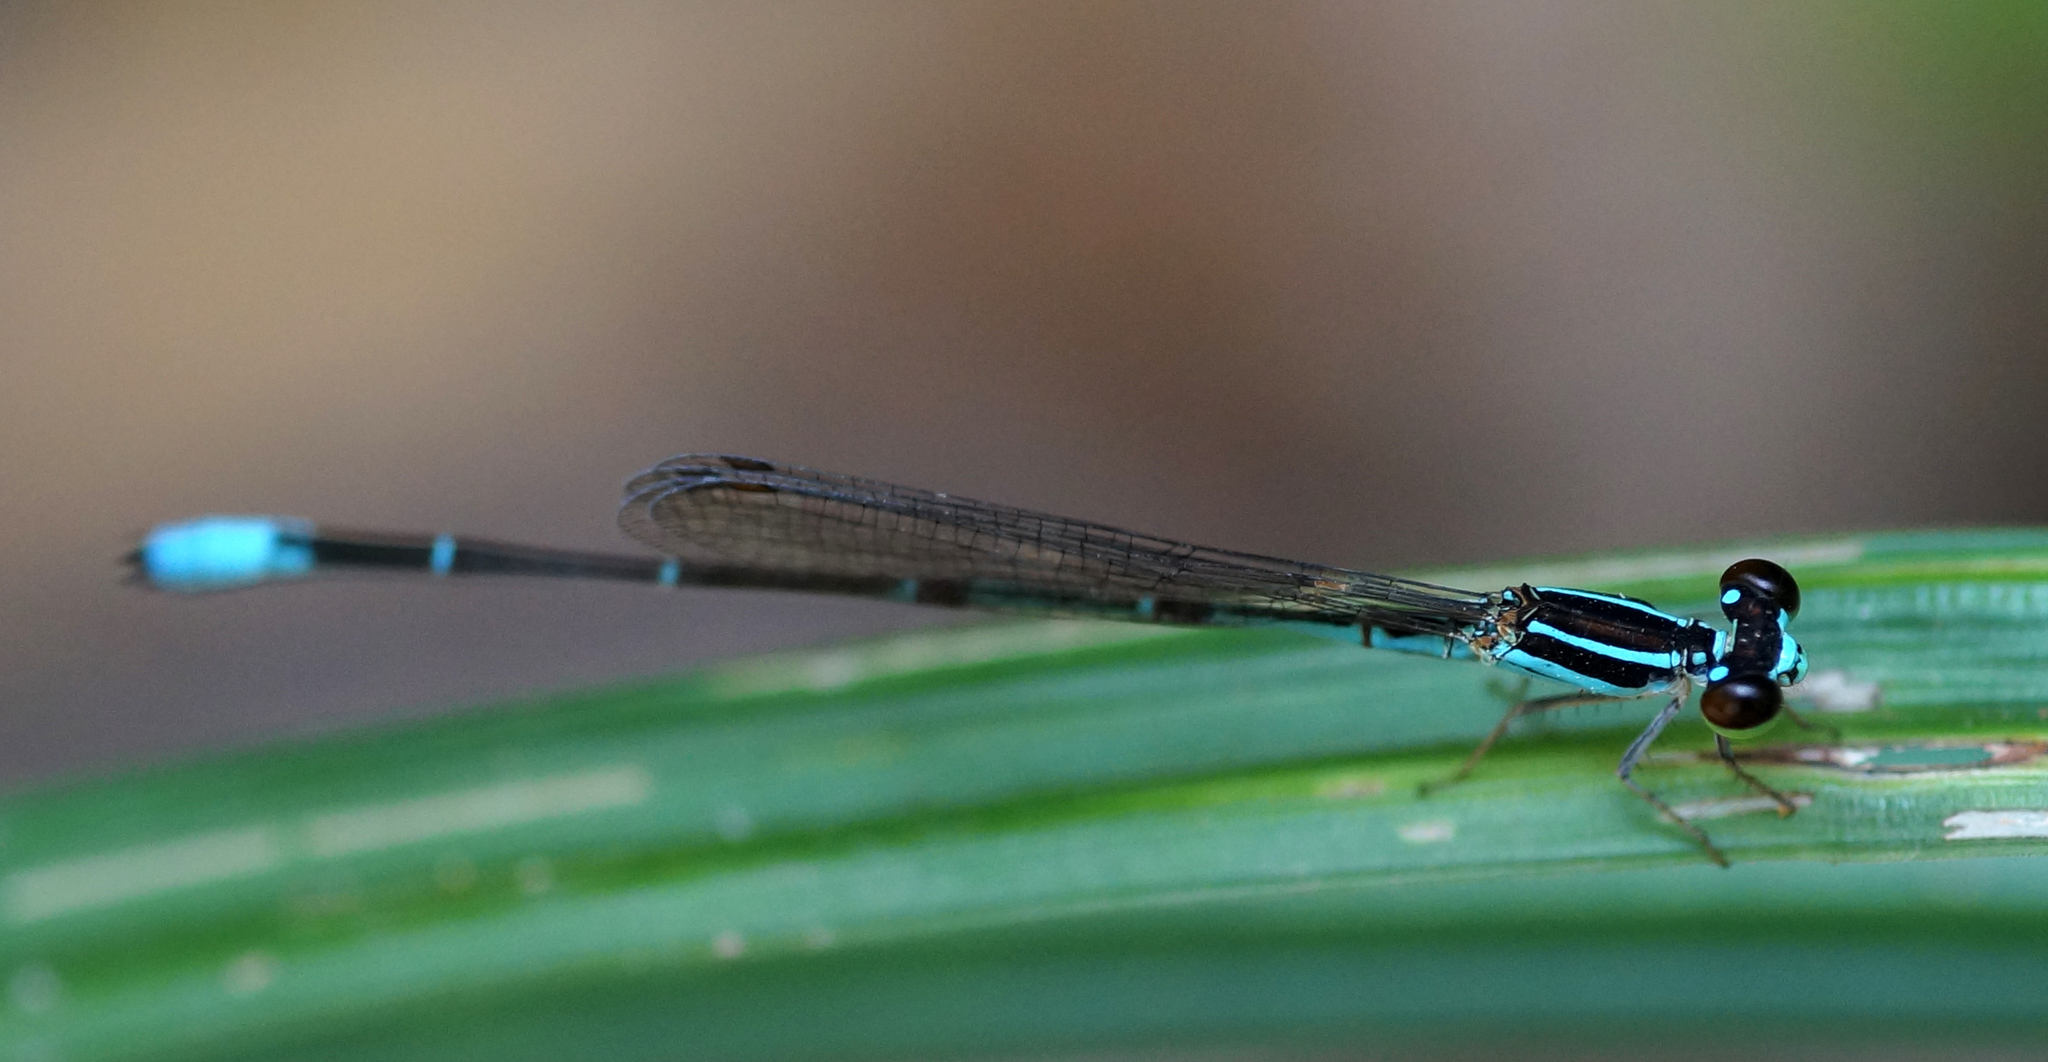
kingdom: Animalia
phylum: Arthropoda
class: Insecta
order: Odonata
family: Coenagrionidae
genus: Argiocnemis
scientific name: Argiocnemis rubescens
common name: Red-tipped shadefly
